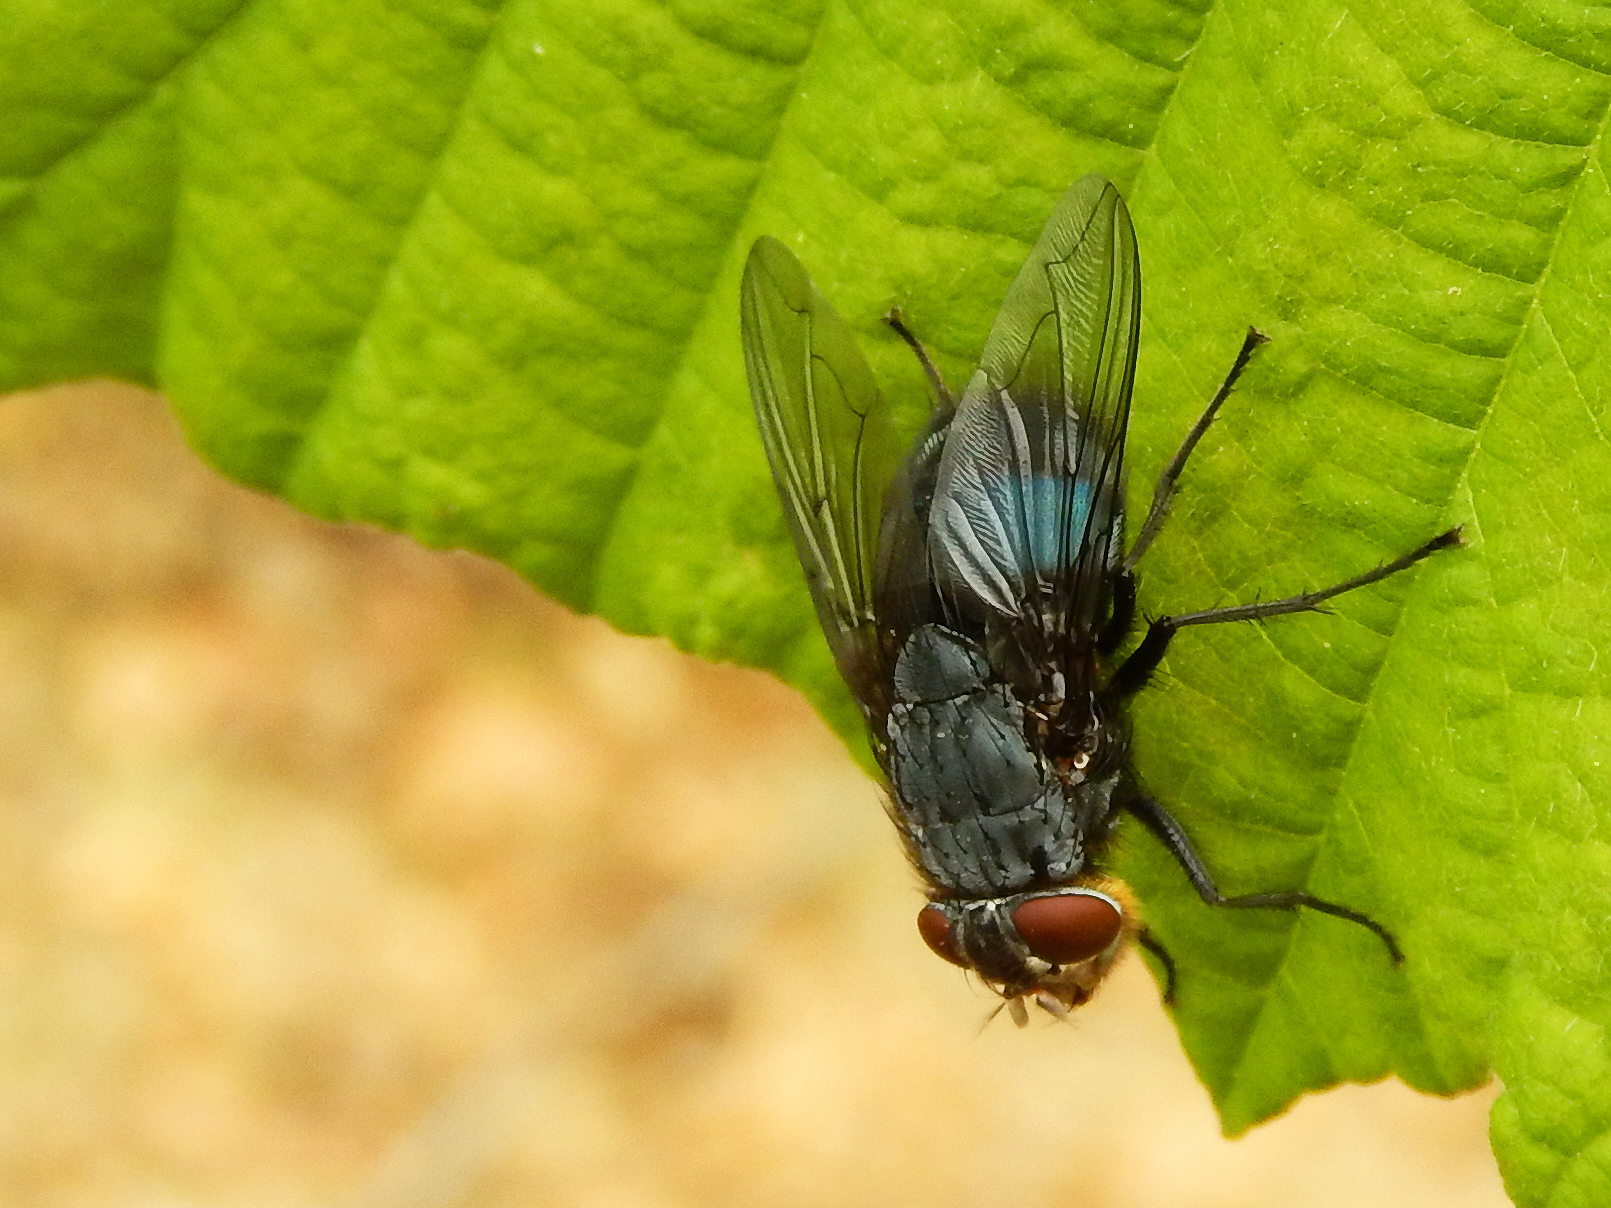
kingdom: Animalia
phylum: Arthropoda
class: Insecta
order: Diptera
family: Calliphoridae
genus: Calliphora
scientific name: Calliphora vomitoria
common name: Blue bottle fly
